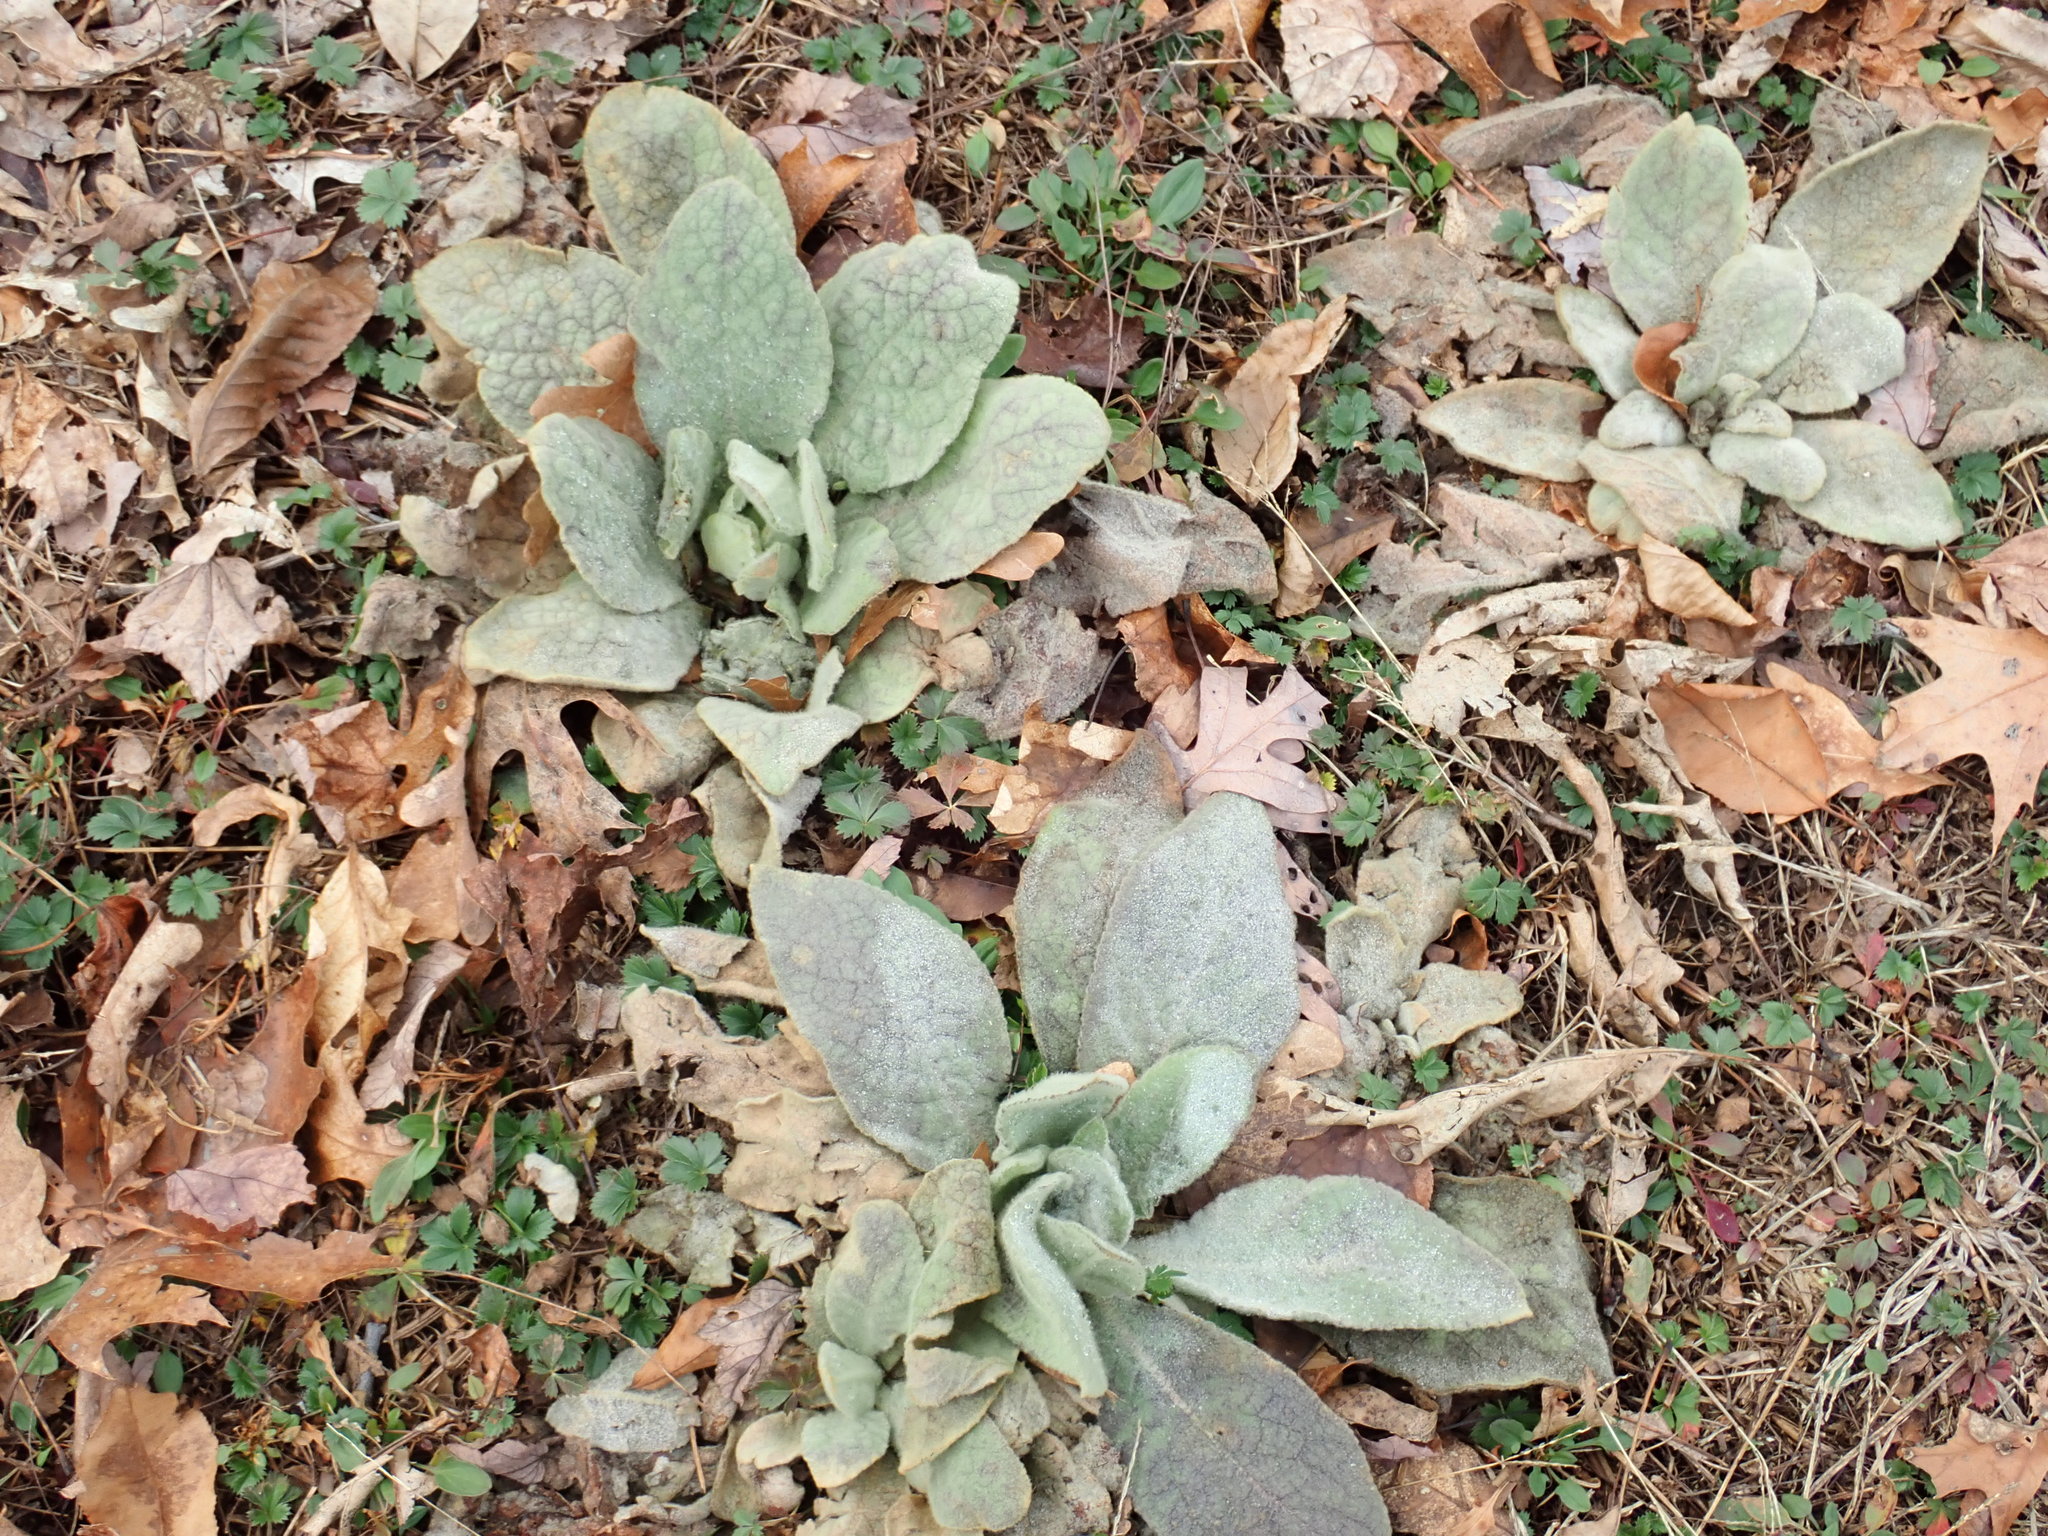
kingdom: Plantae
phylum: Tracheophyta
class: Magnoliopsida
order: Lamiales
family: Scrophulariaceae
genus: Verbascum
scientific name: Verbascum thapsus
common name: Common mullein
